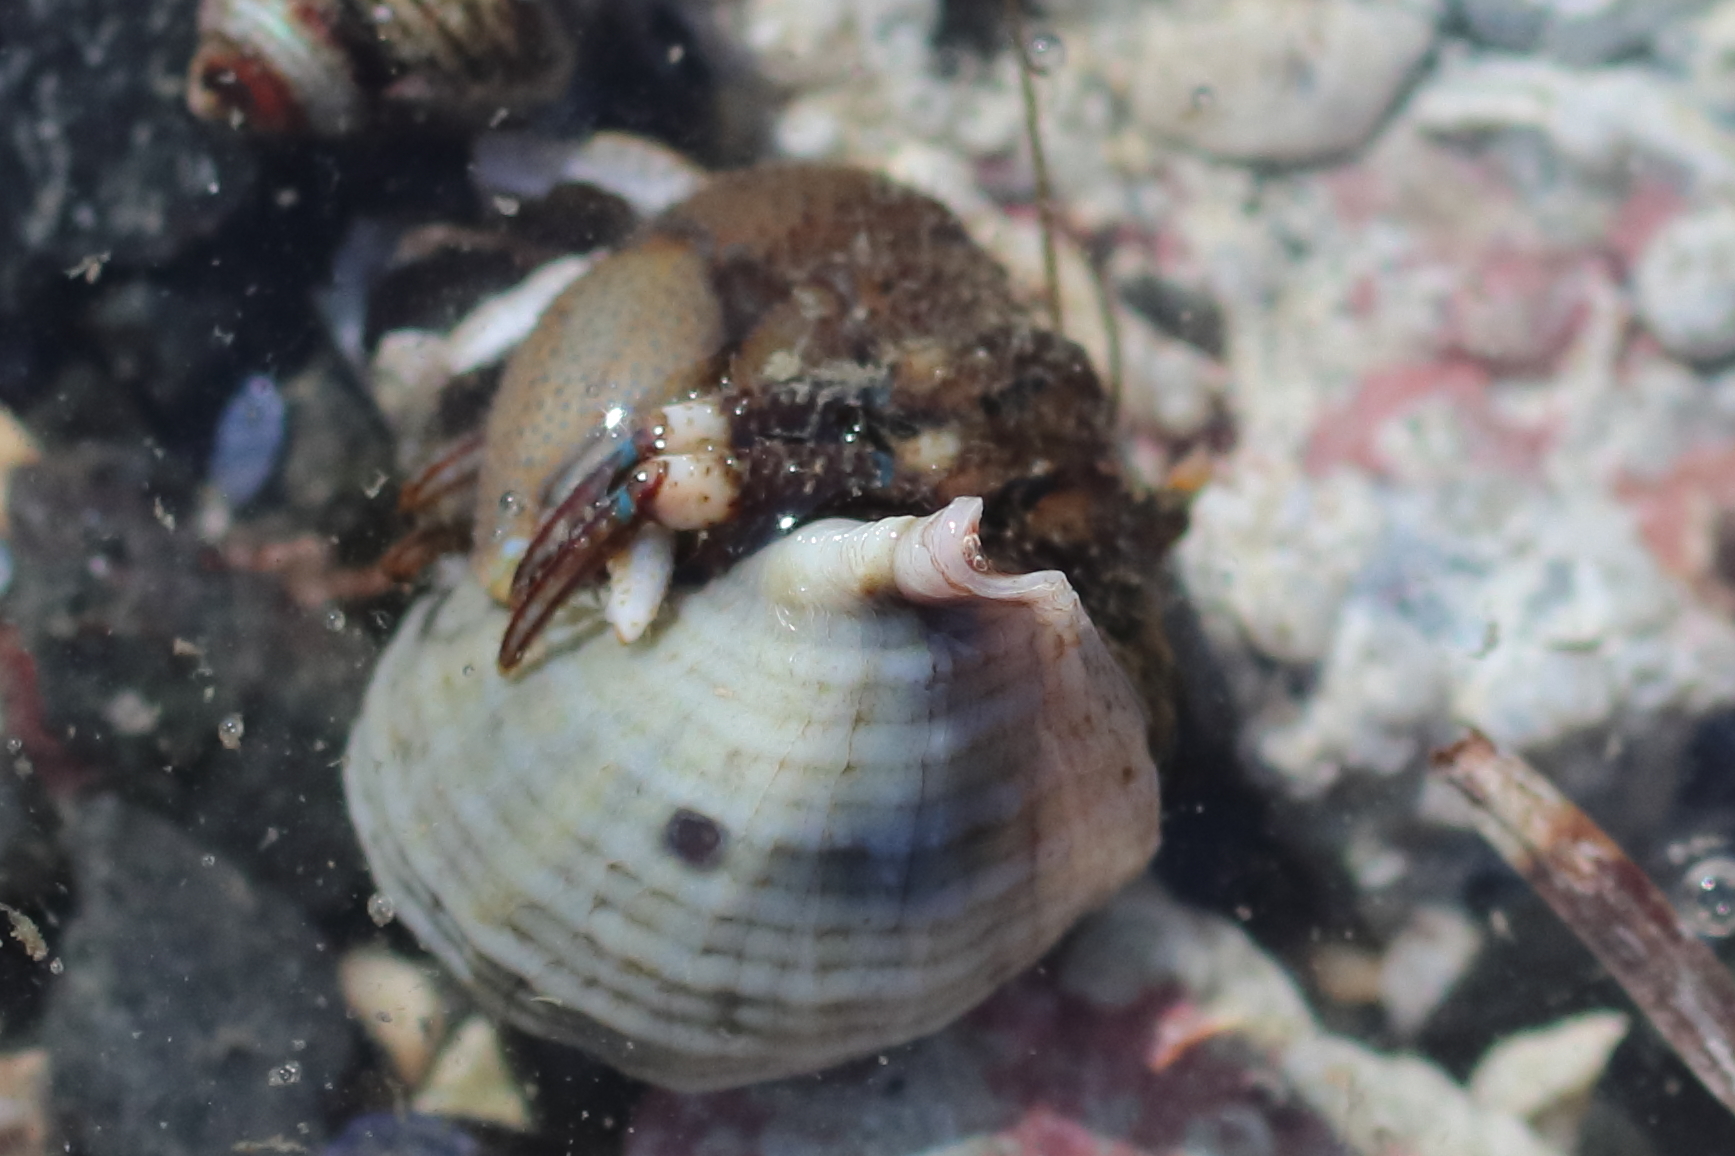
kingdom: Animalia
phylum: Arthropoda
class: Malacostraca
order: Decapoda
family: Paguridae
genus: Pagurus
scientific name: Pagurus hirsutiusculus
